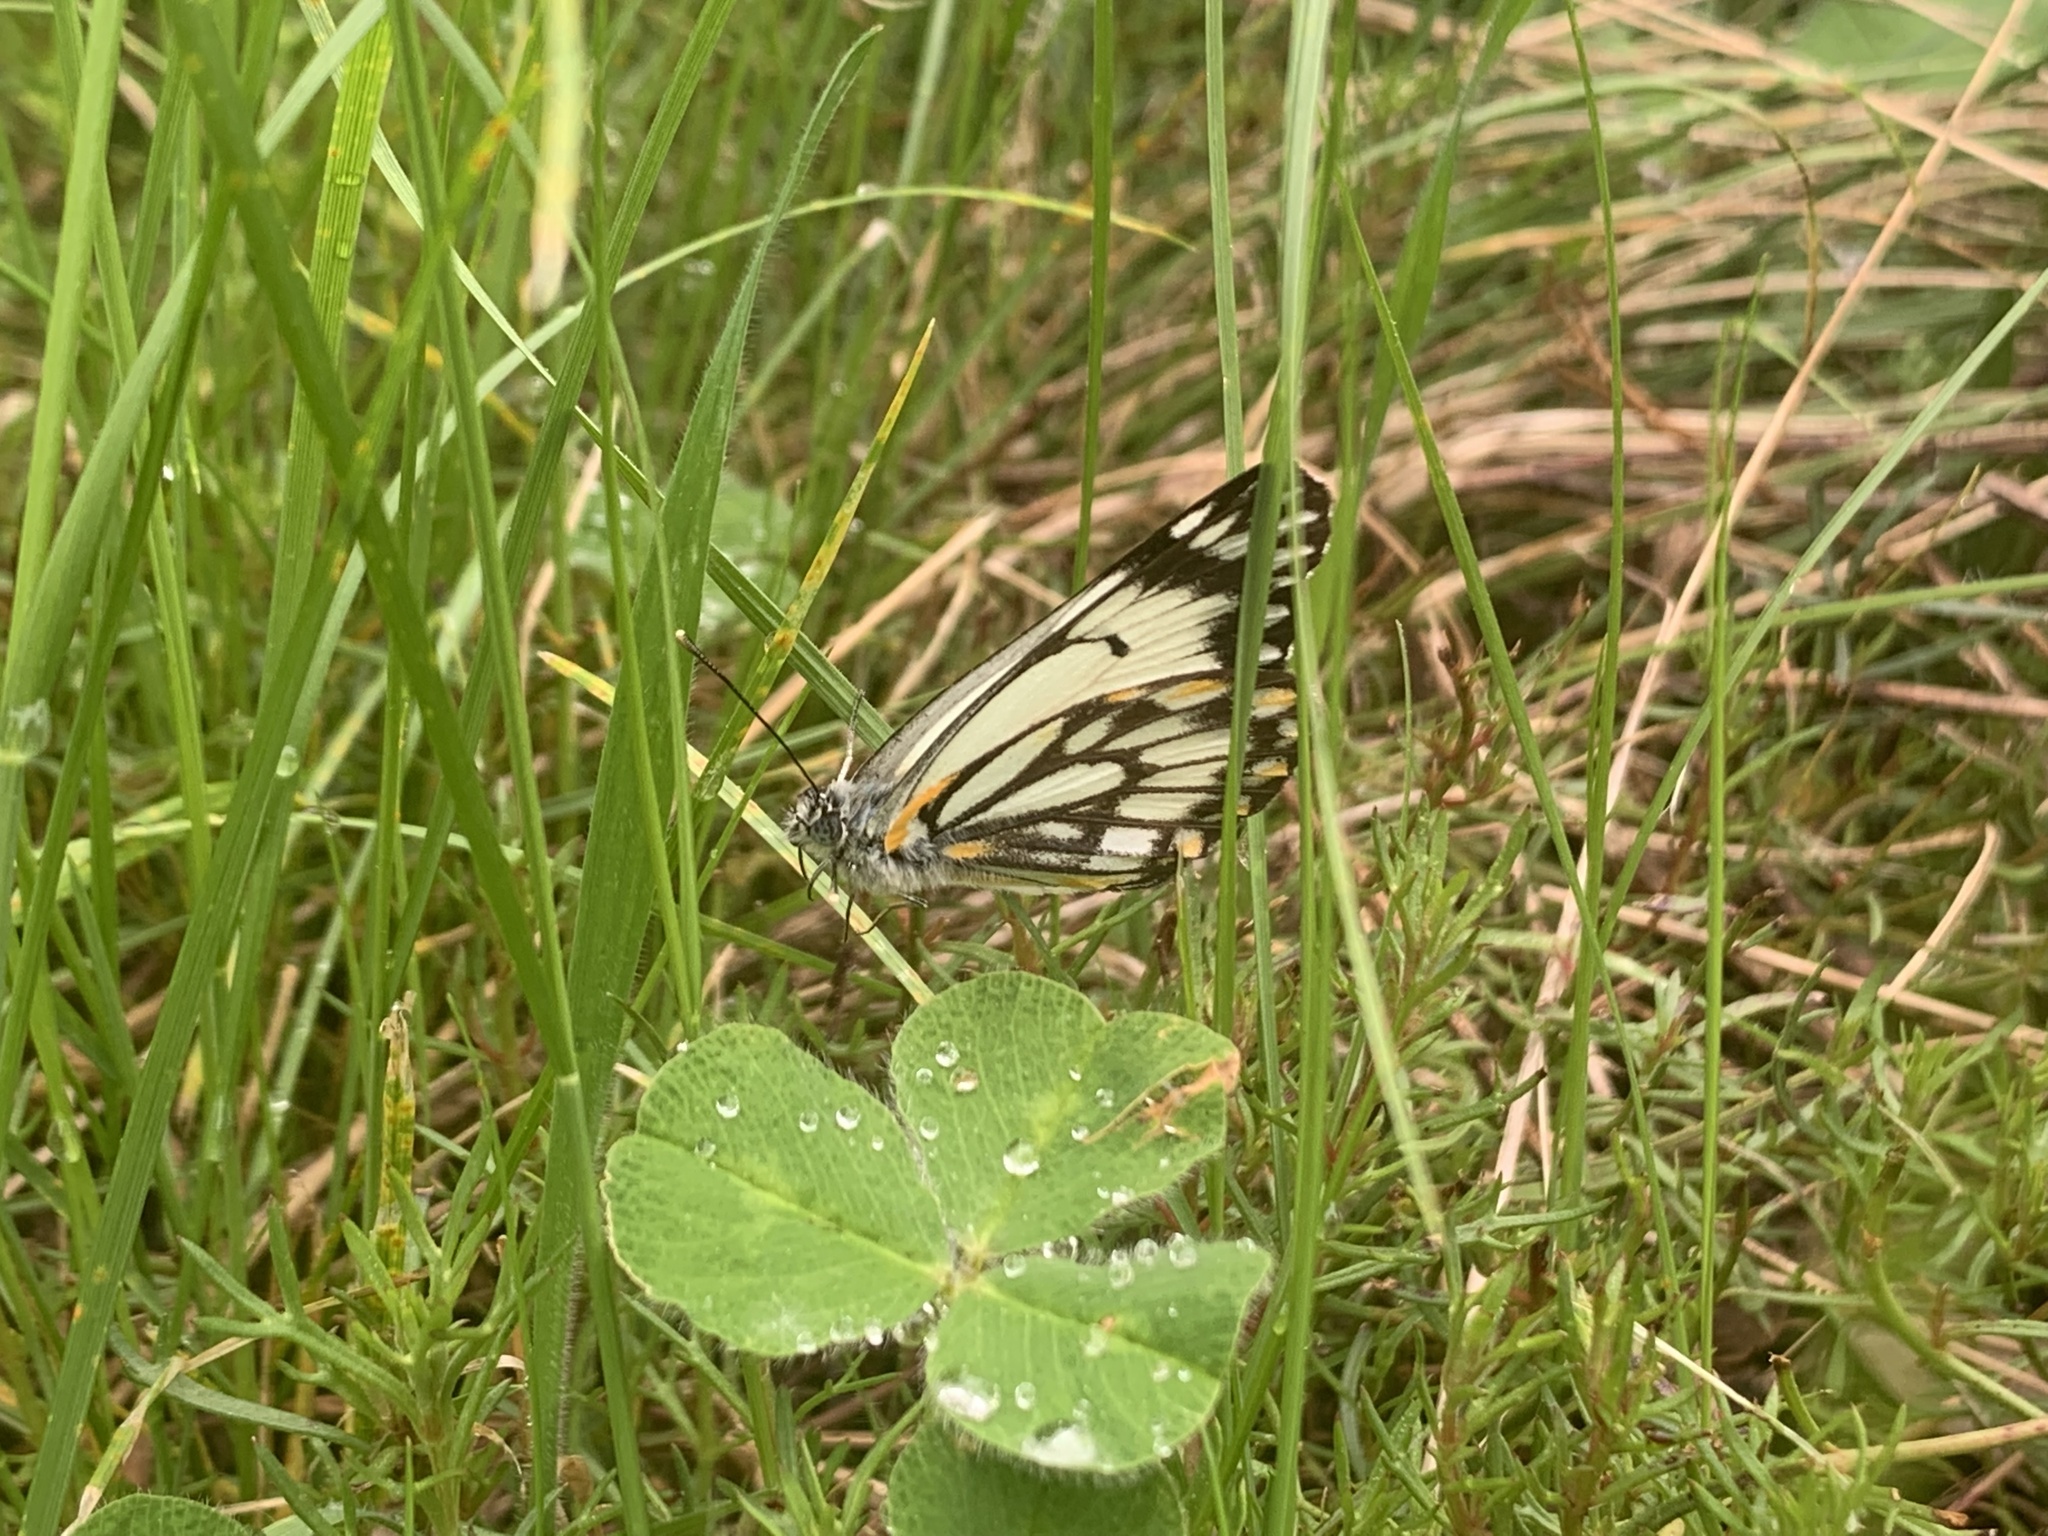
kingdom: Animalia
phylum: Arthropoda
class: Insecta
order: Lepidoptera
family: Pieridae
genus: Belenois
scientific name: Belenois java
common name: Caper white
